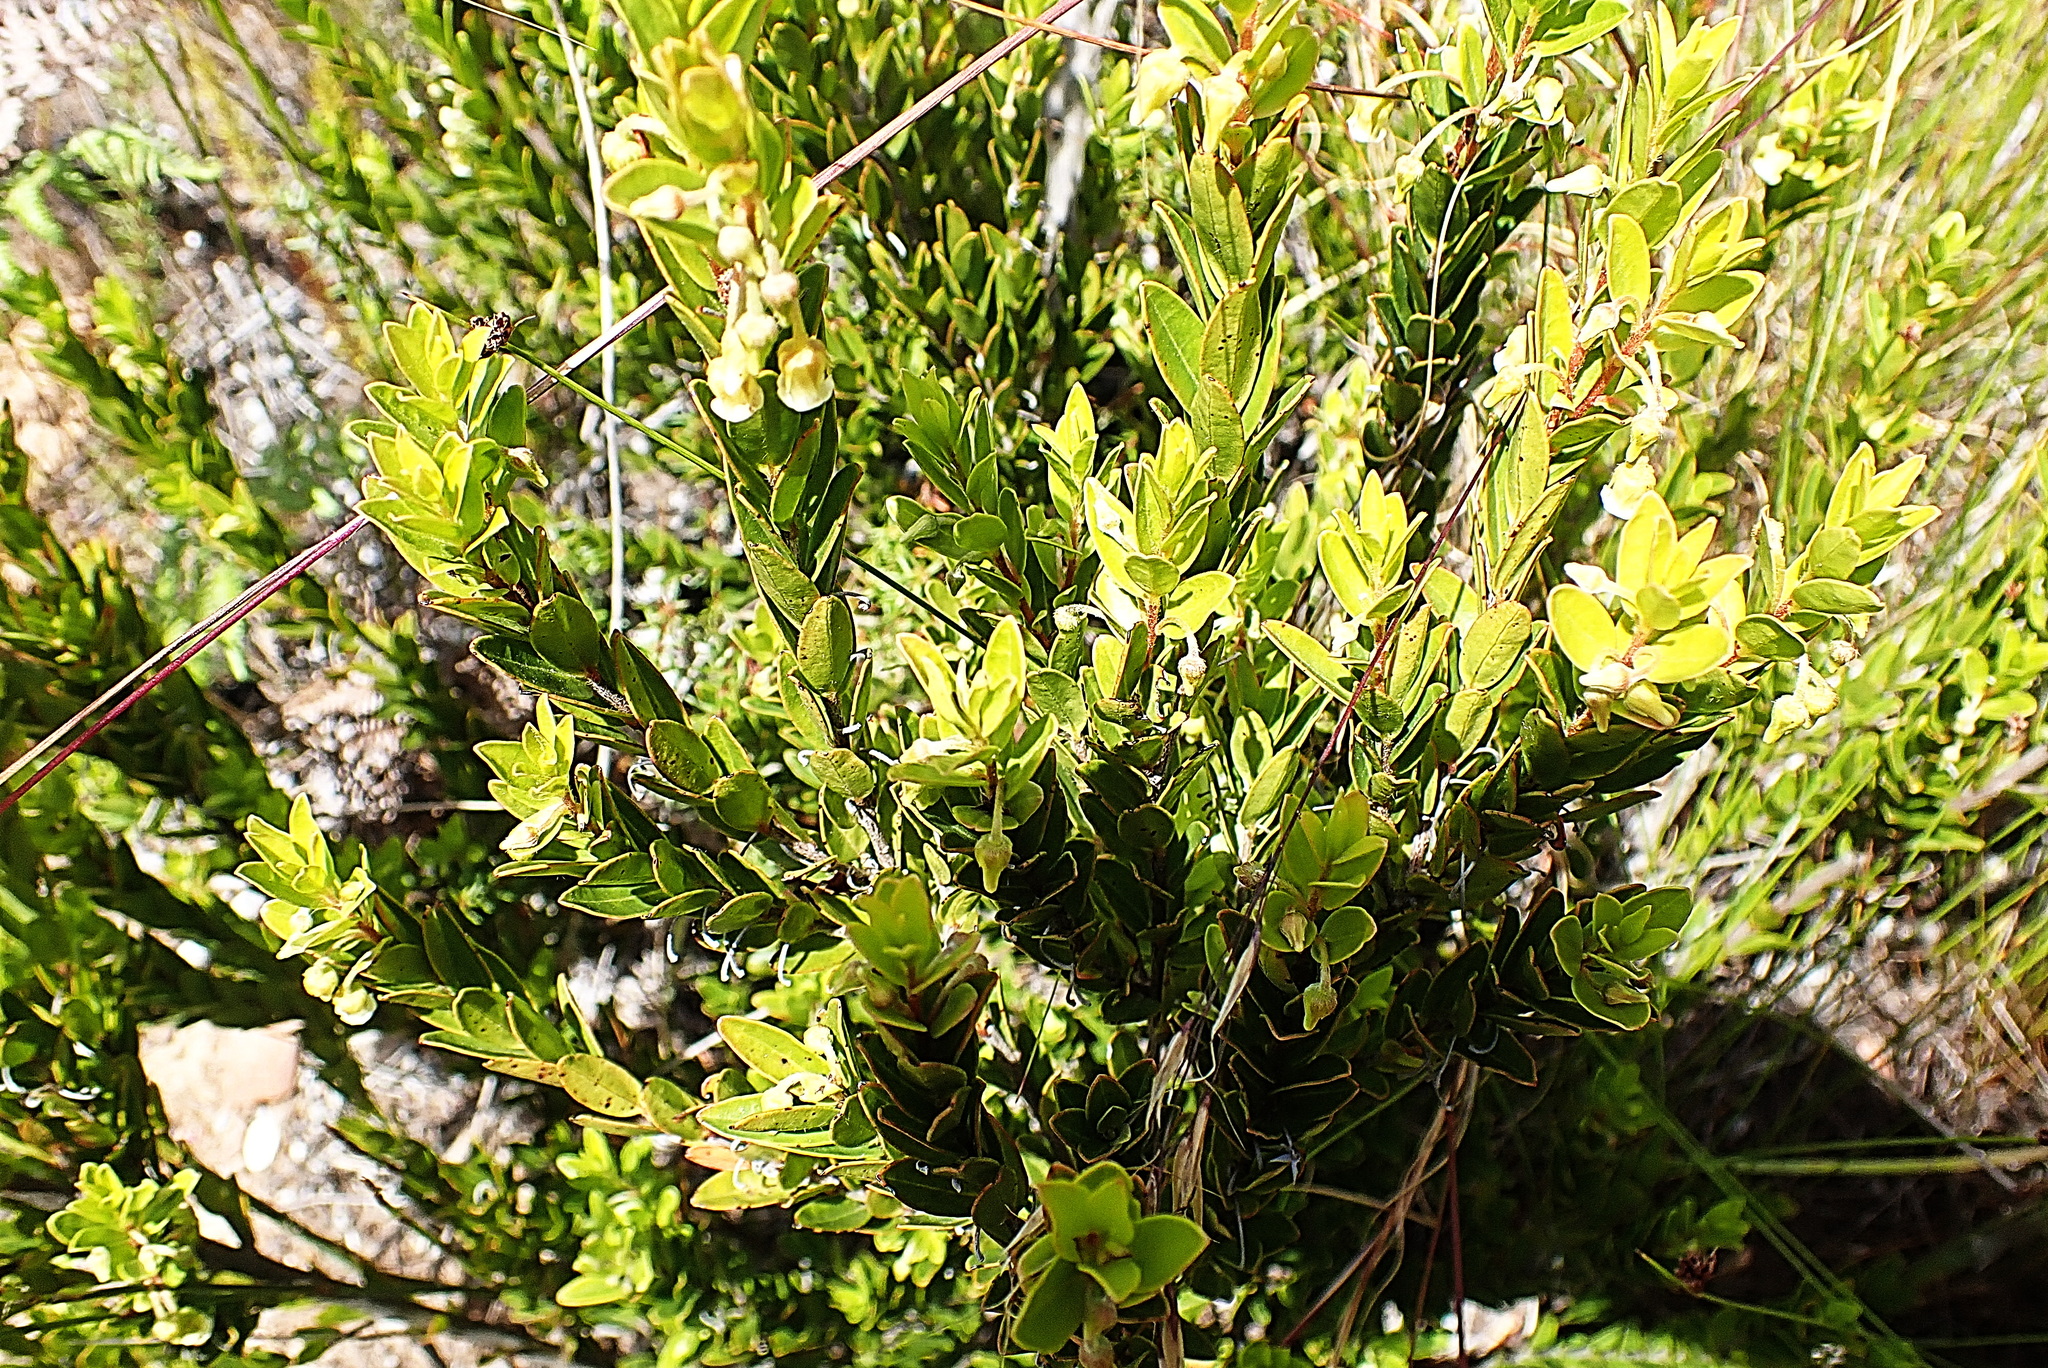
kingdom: Plantae
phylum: Tracheophyta
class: Magnoliopsida
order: Ericales
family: Ebenaceae
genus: Diospyros
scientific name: Diospyros glabra
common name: Fynbos star apple
